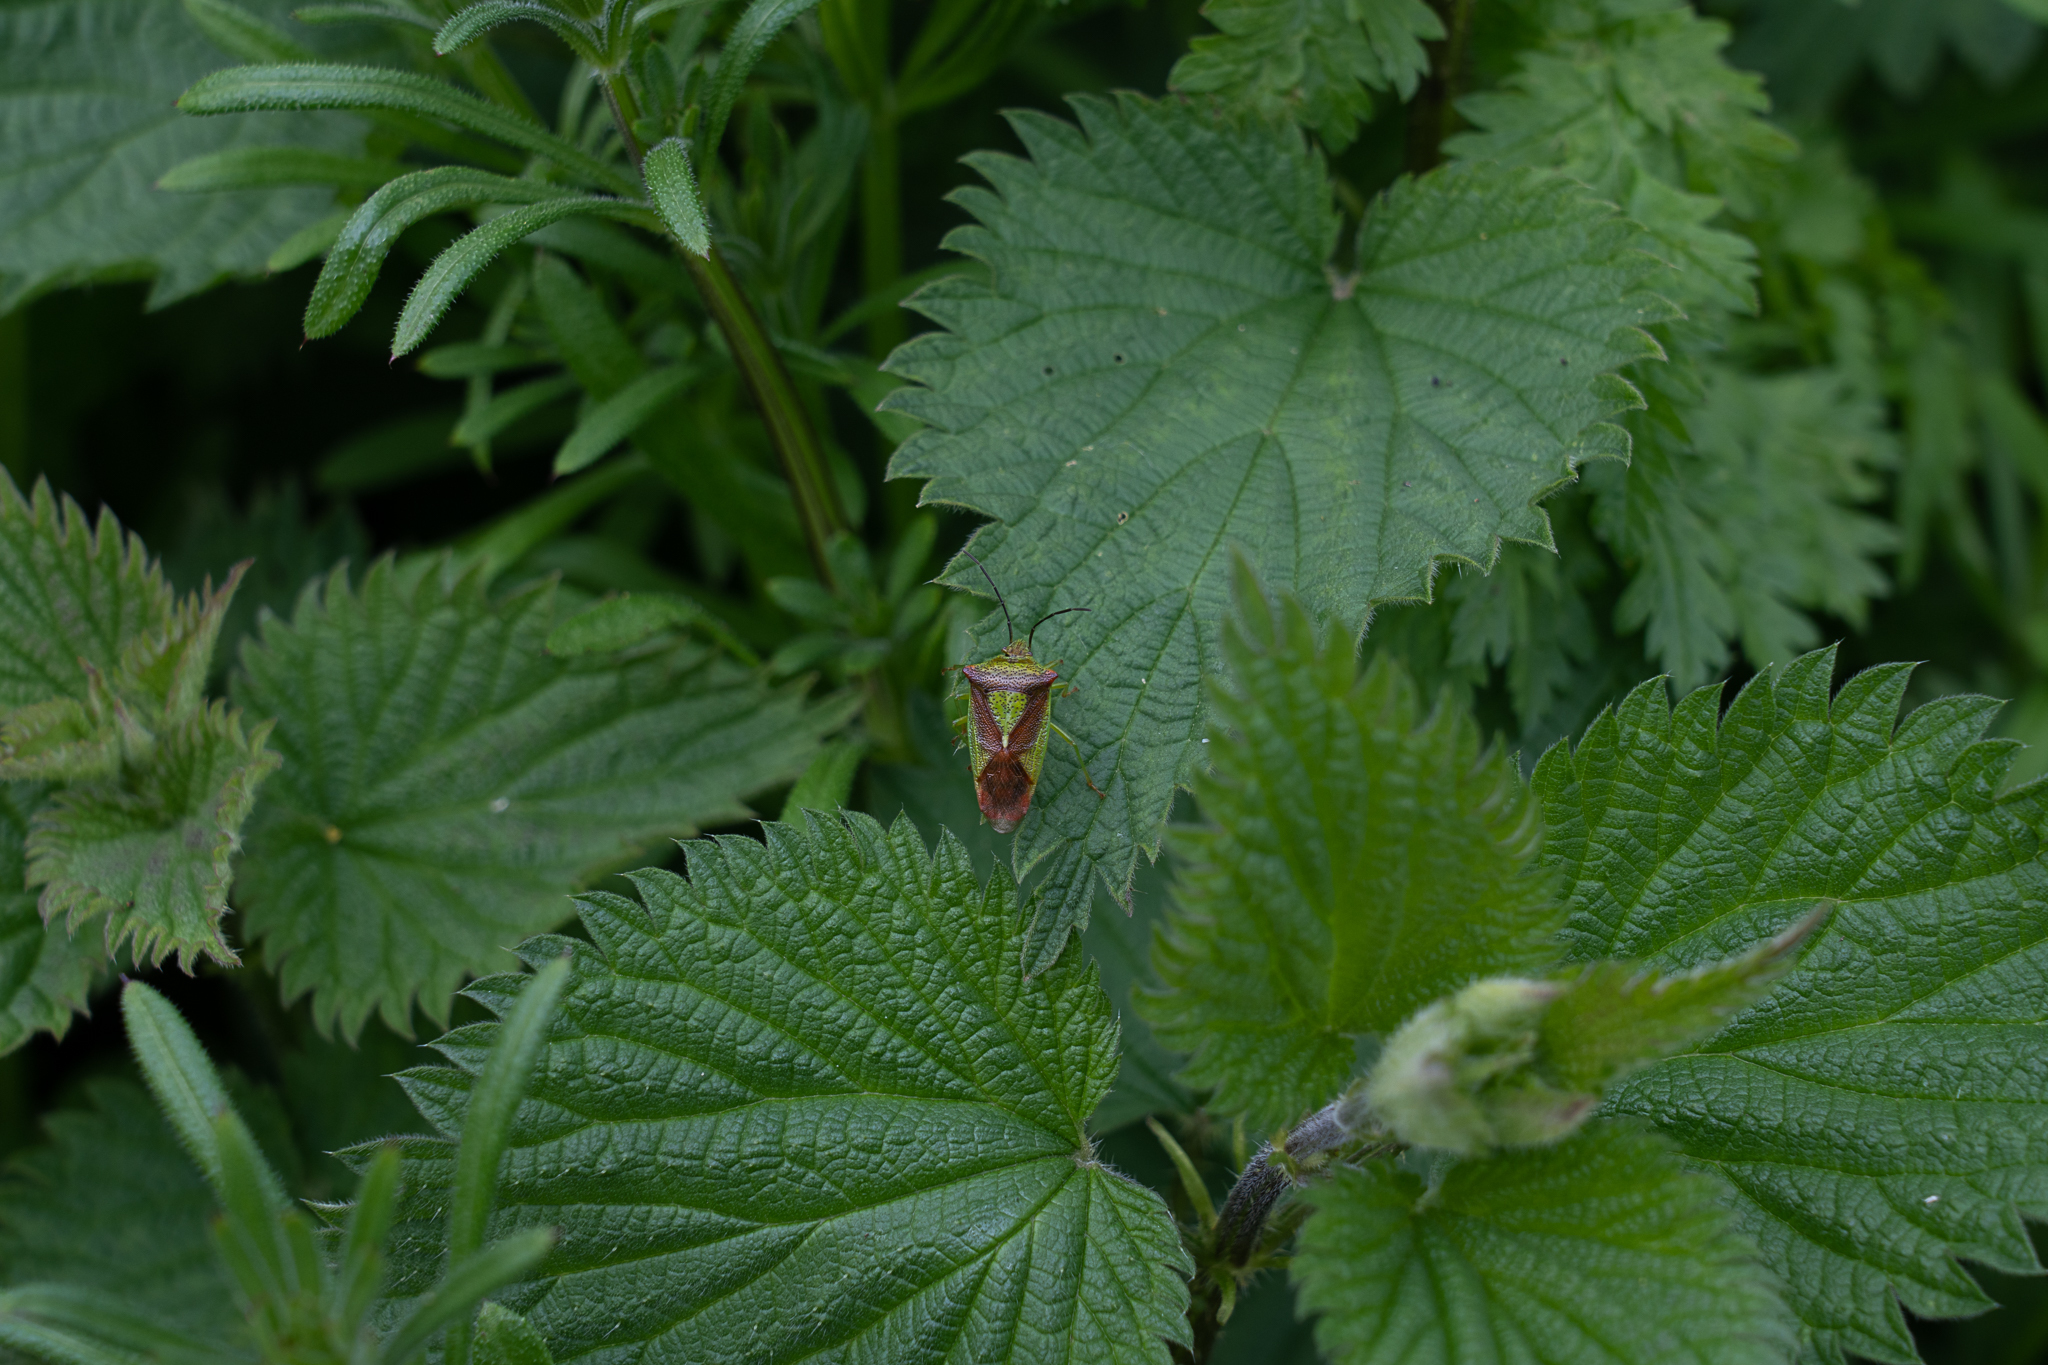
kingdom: Animalia
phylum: Arthropoda
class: Insecta
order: Hemiptera
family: Acanthosomatidae
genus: Acanthosoma
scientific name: Acanthosoma haemorrhoidale
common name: Hawthorn shieldbug
